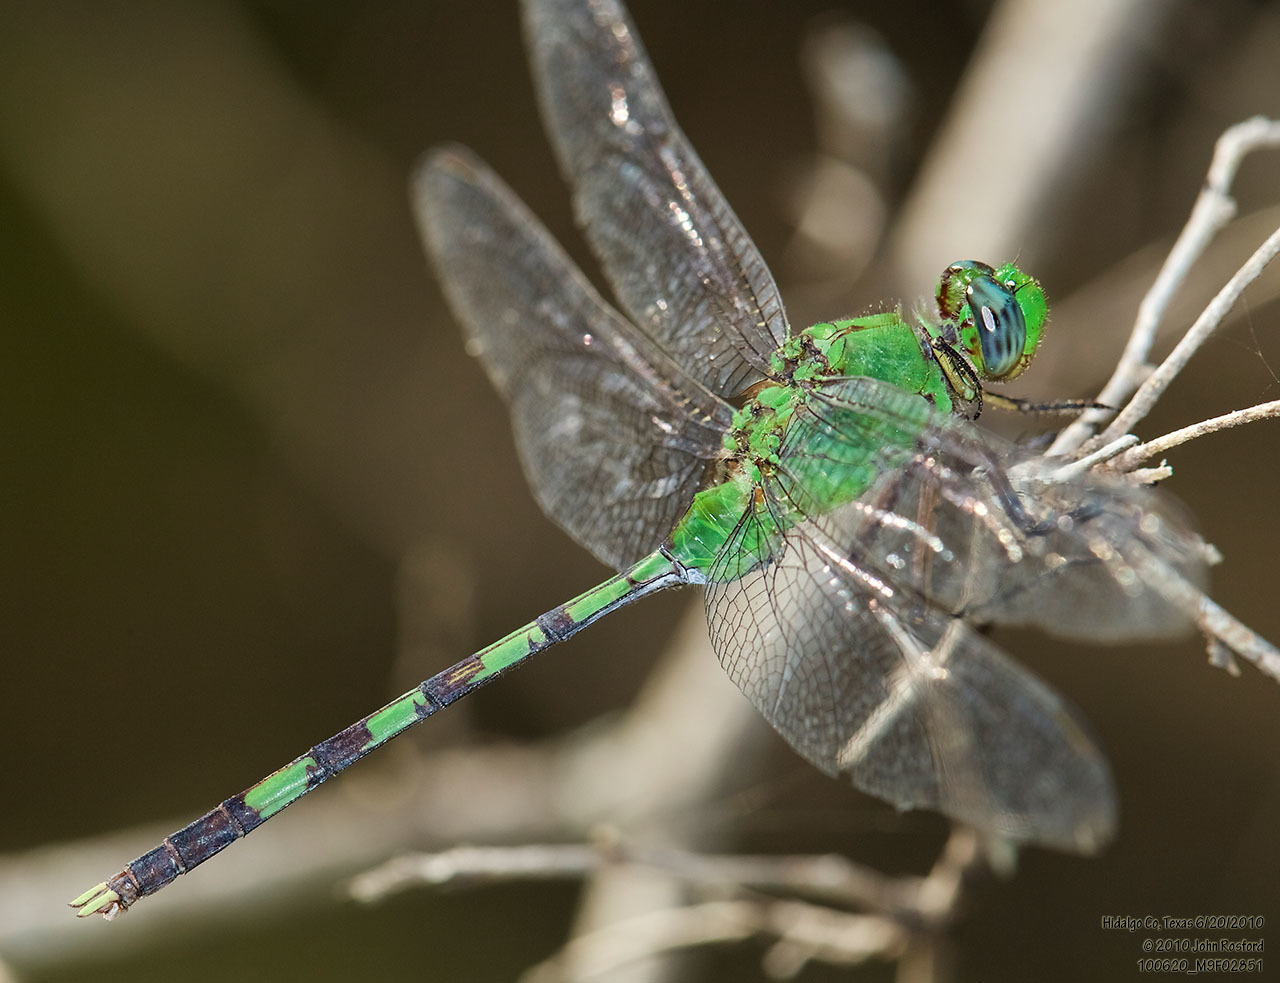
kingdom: Animalia
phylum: Arthropoda
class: Insecta
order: Odonata
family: Libellulidae
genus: Erythemis
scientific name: Erythemis vesiculosa
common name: Great pondhawk
